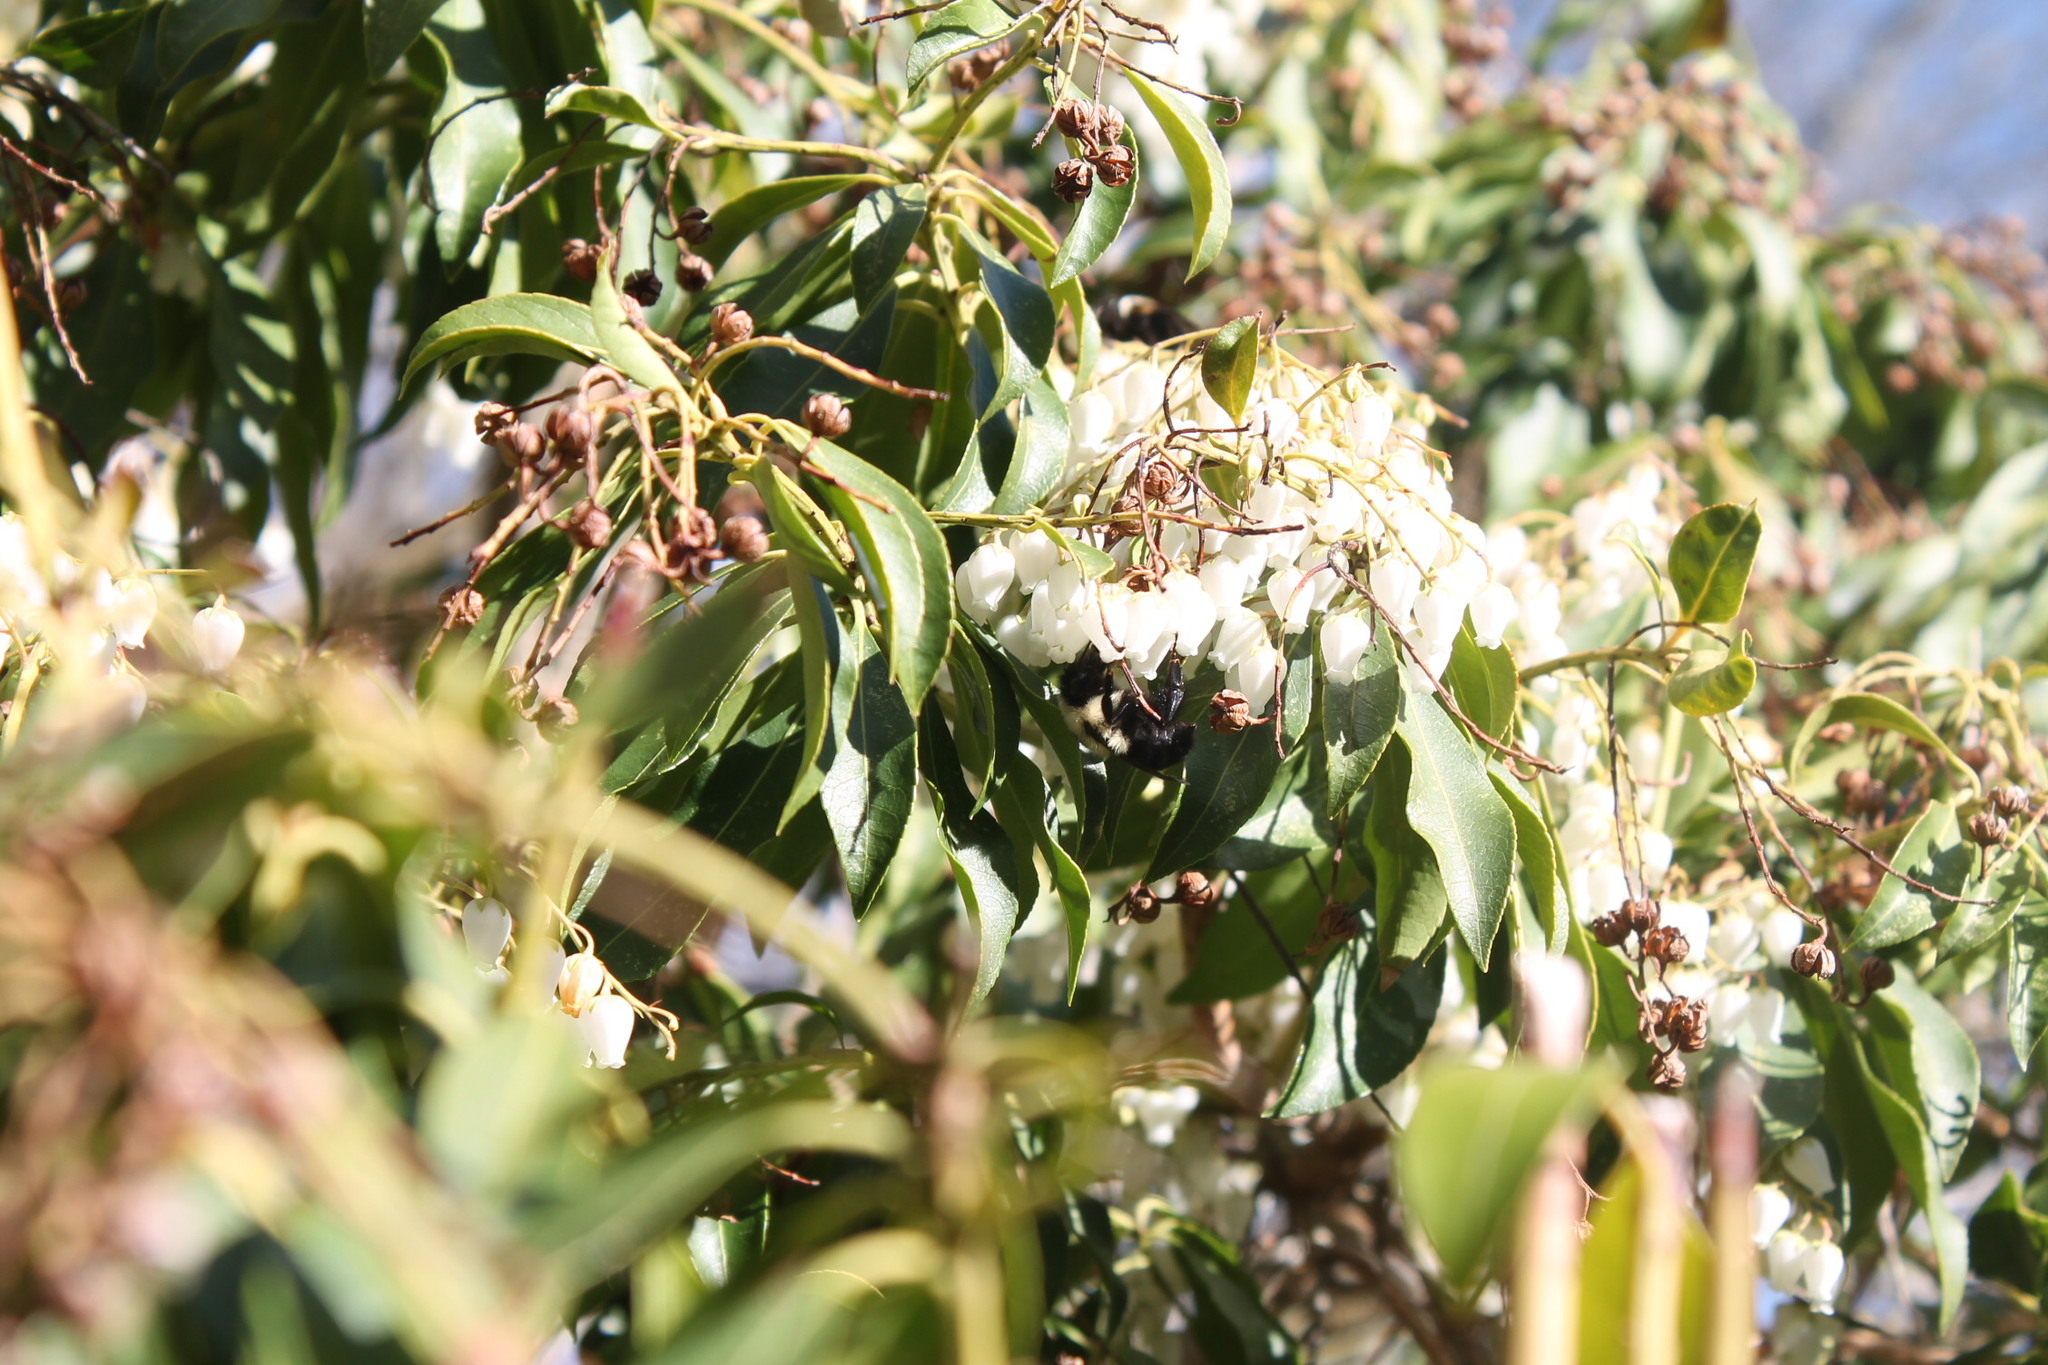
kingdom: Animalia
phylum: Arthropoda
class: Insecta
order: Hymenoptera
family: Apidae
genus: Bombus
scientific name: Bombus
